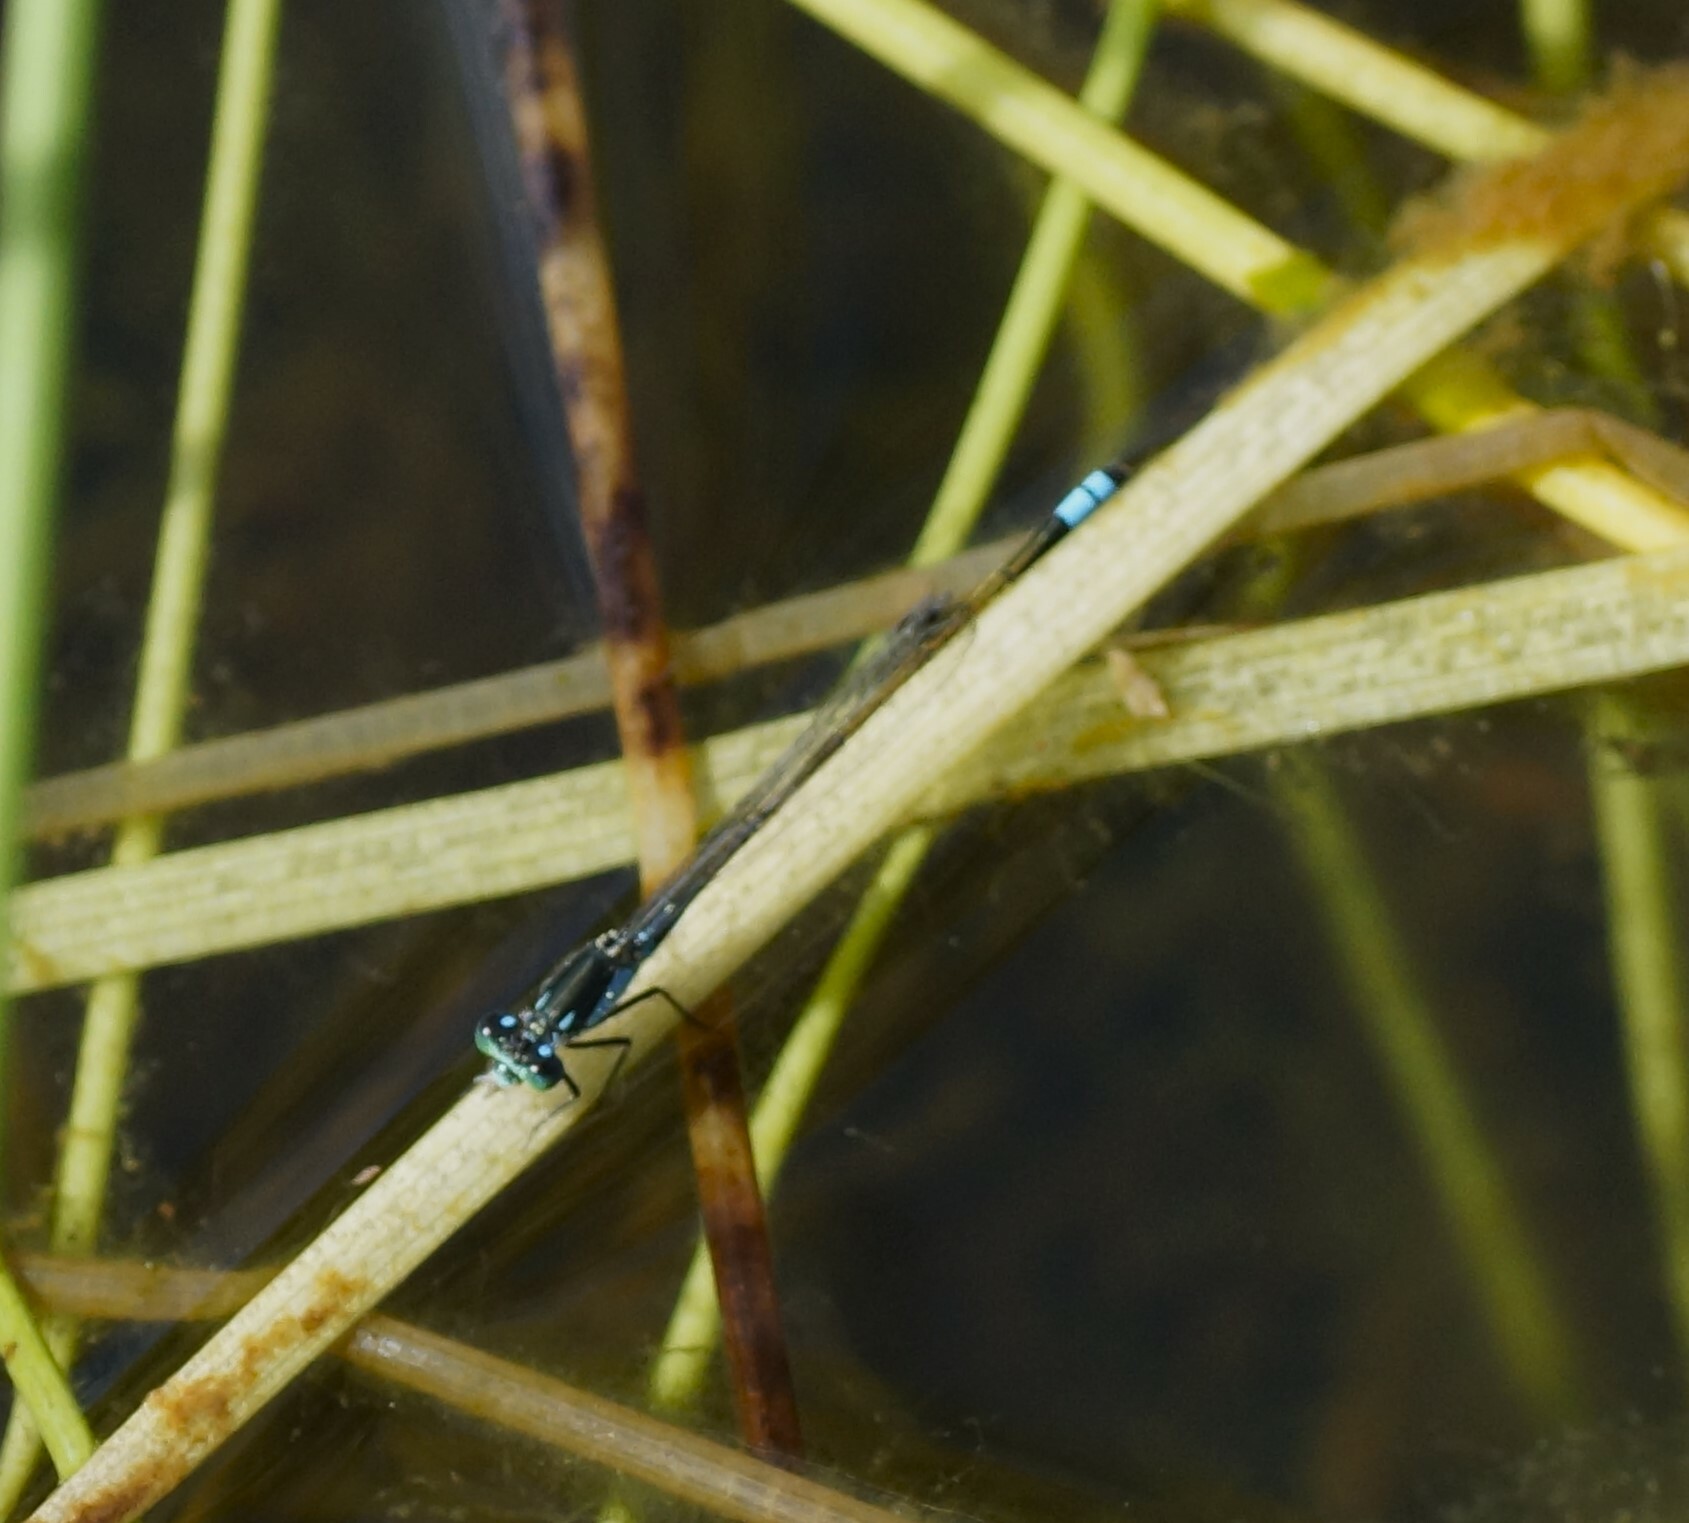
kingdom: Animalia
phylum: Arthropoda
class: Insecta
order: Odonata
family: Coenagrionidae
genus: Ischnura
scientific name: Ischnura heterosticta
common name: Common bluetail
